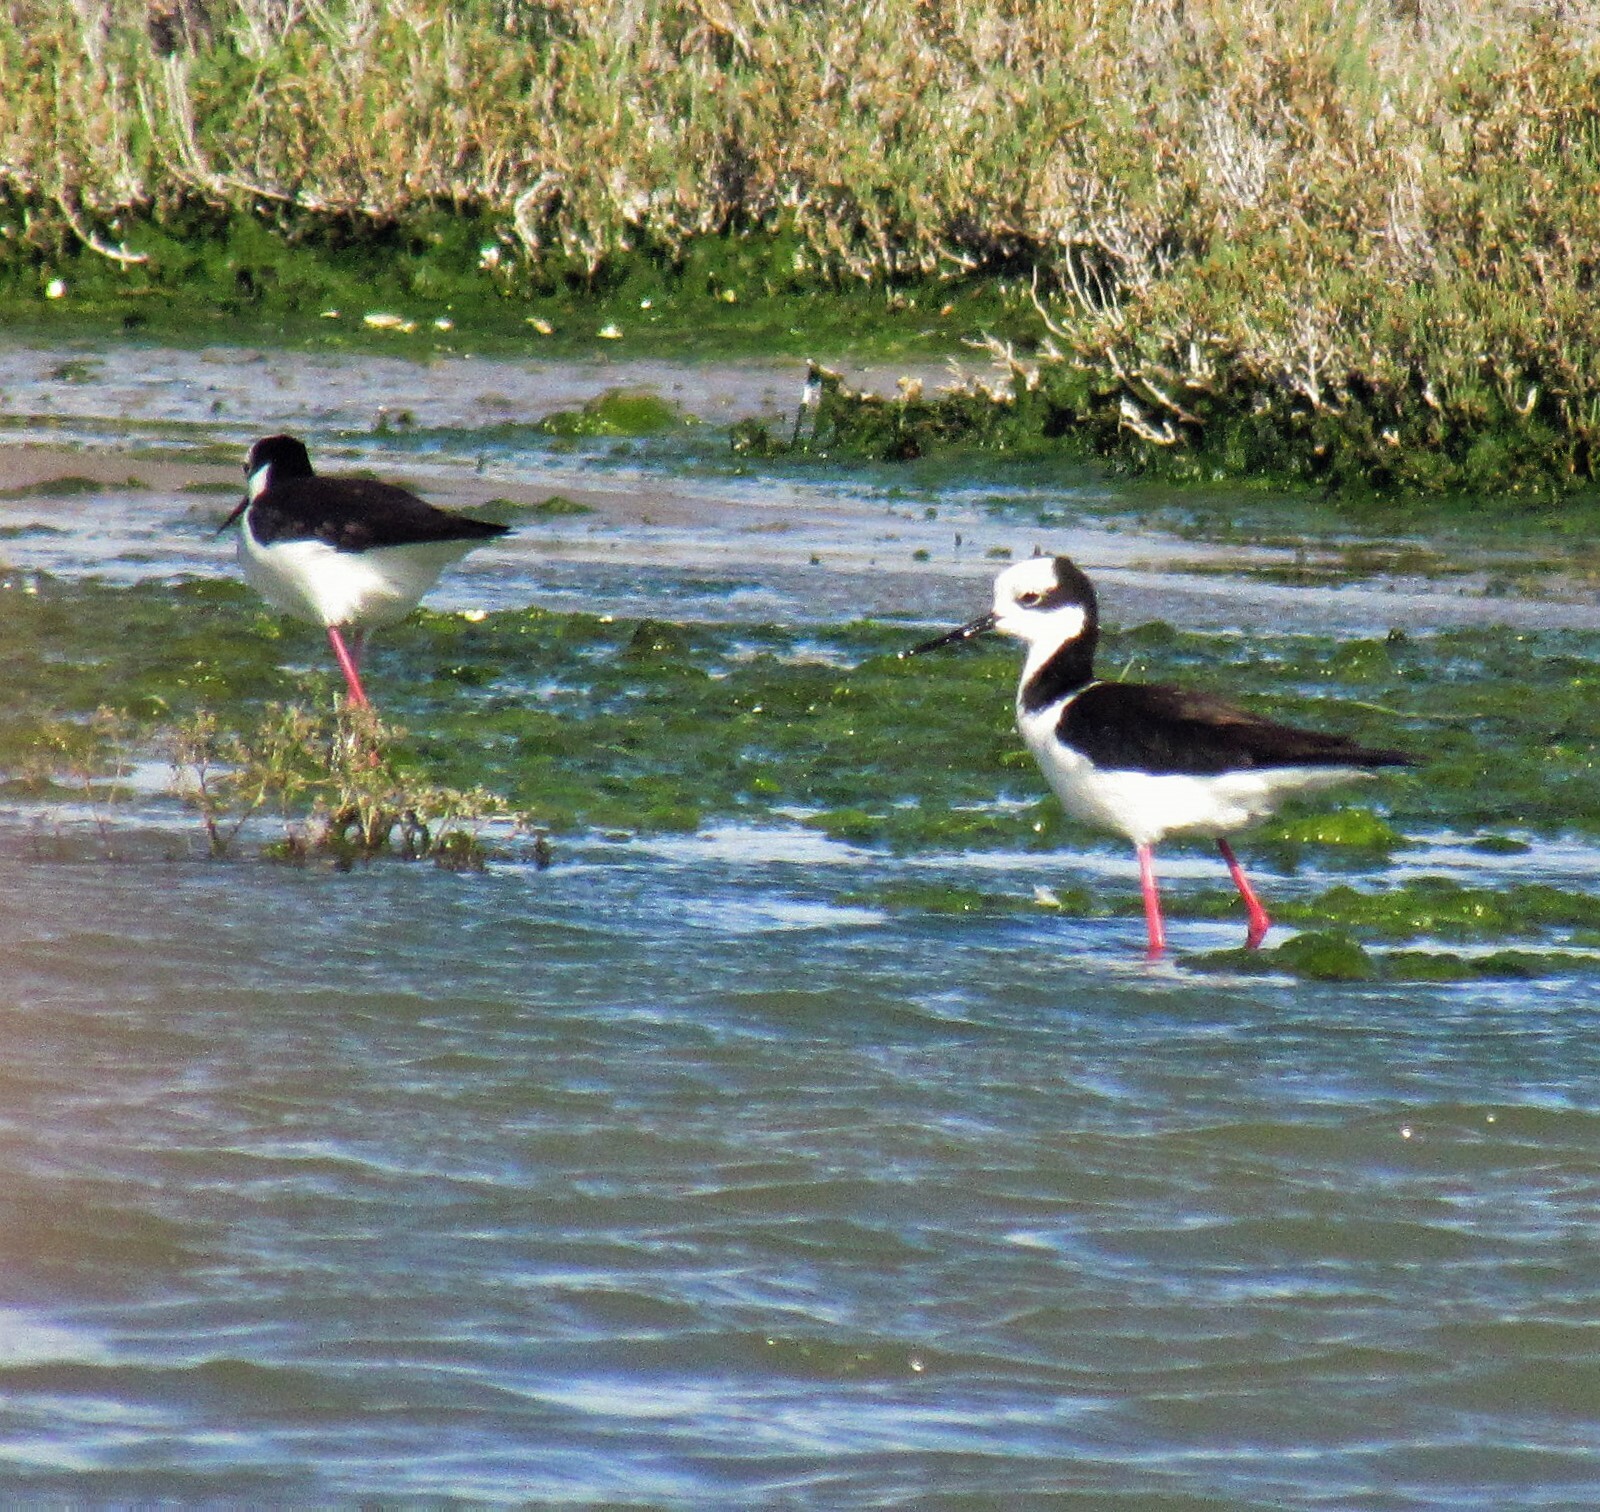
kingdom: Animalia
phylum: Chordata
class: Aves
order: Charadriiformes
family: Recurvirostridae
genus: Himantopus
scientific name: Himantopus mexicanus
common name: Black-necked stilt
